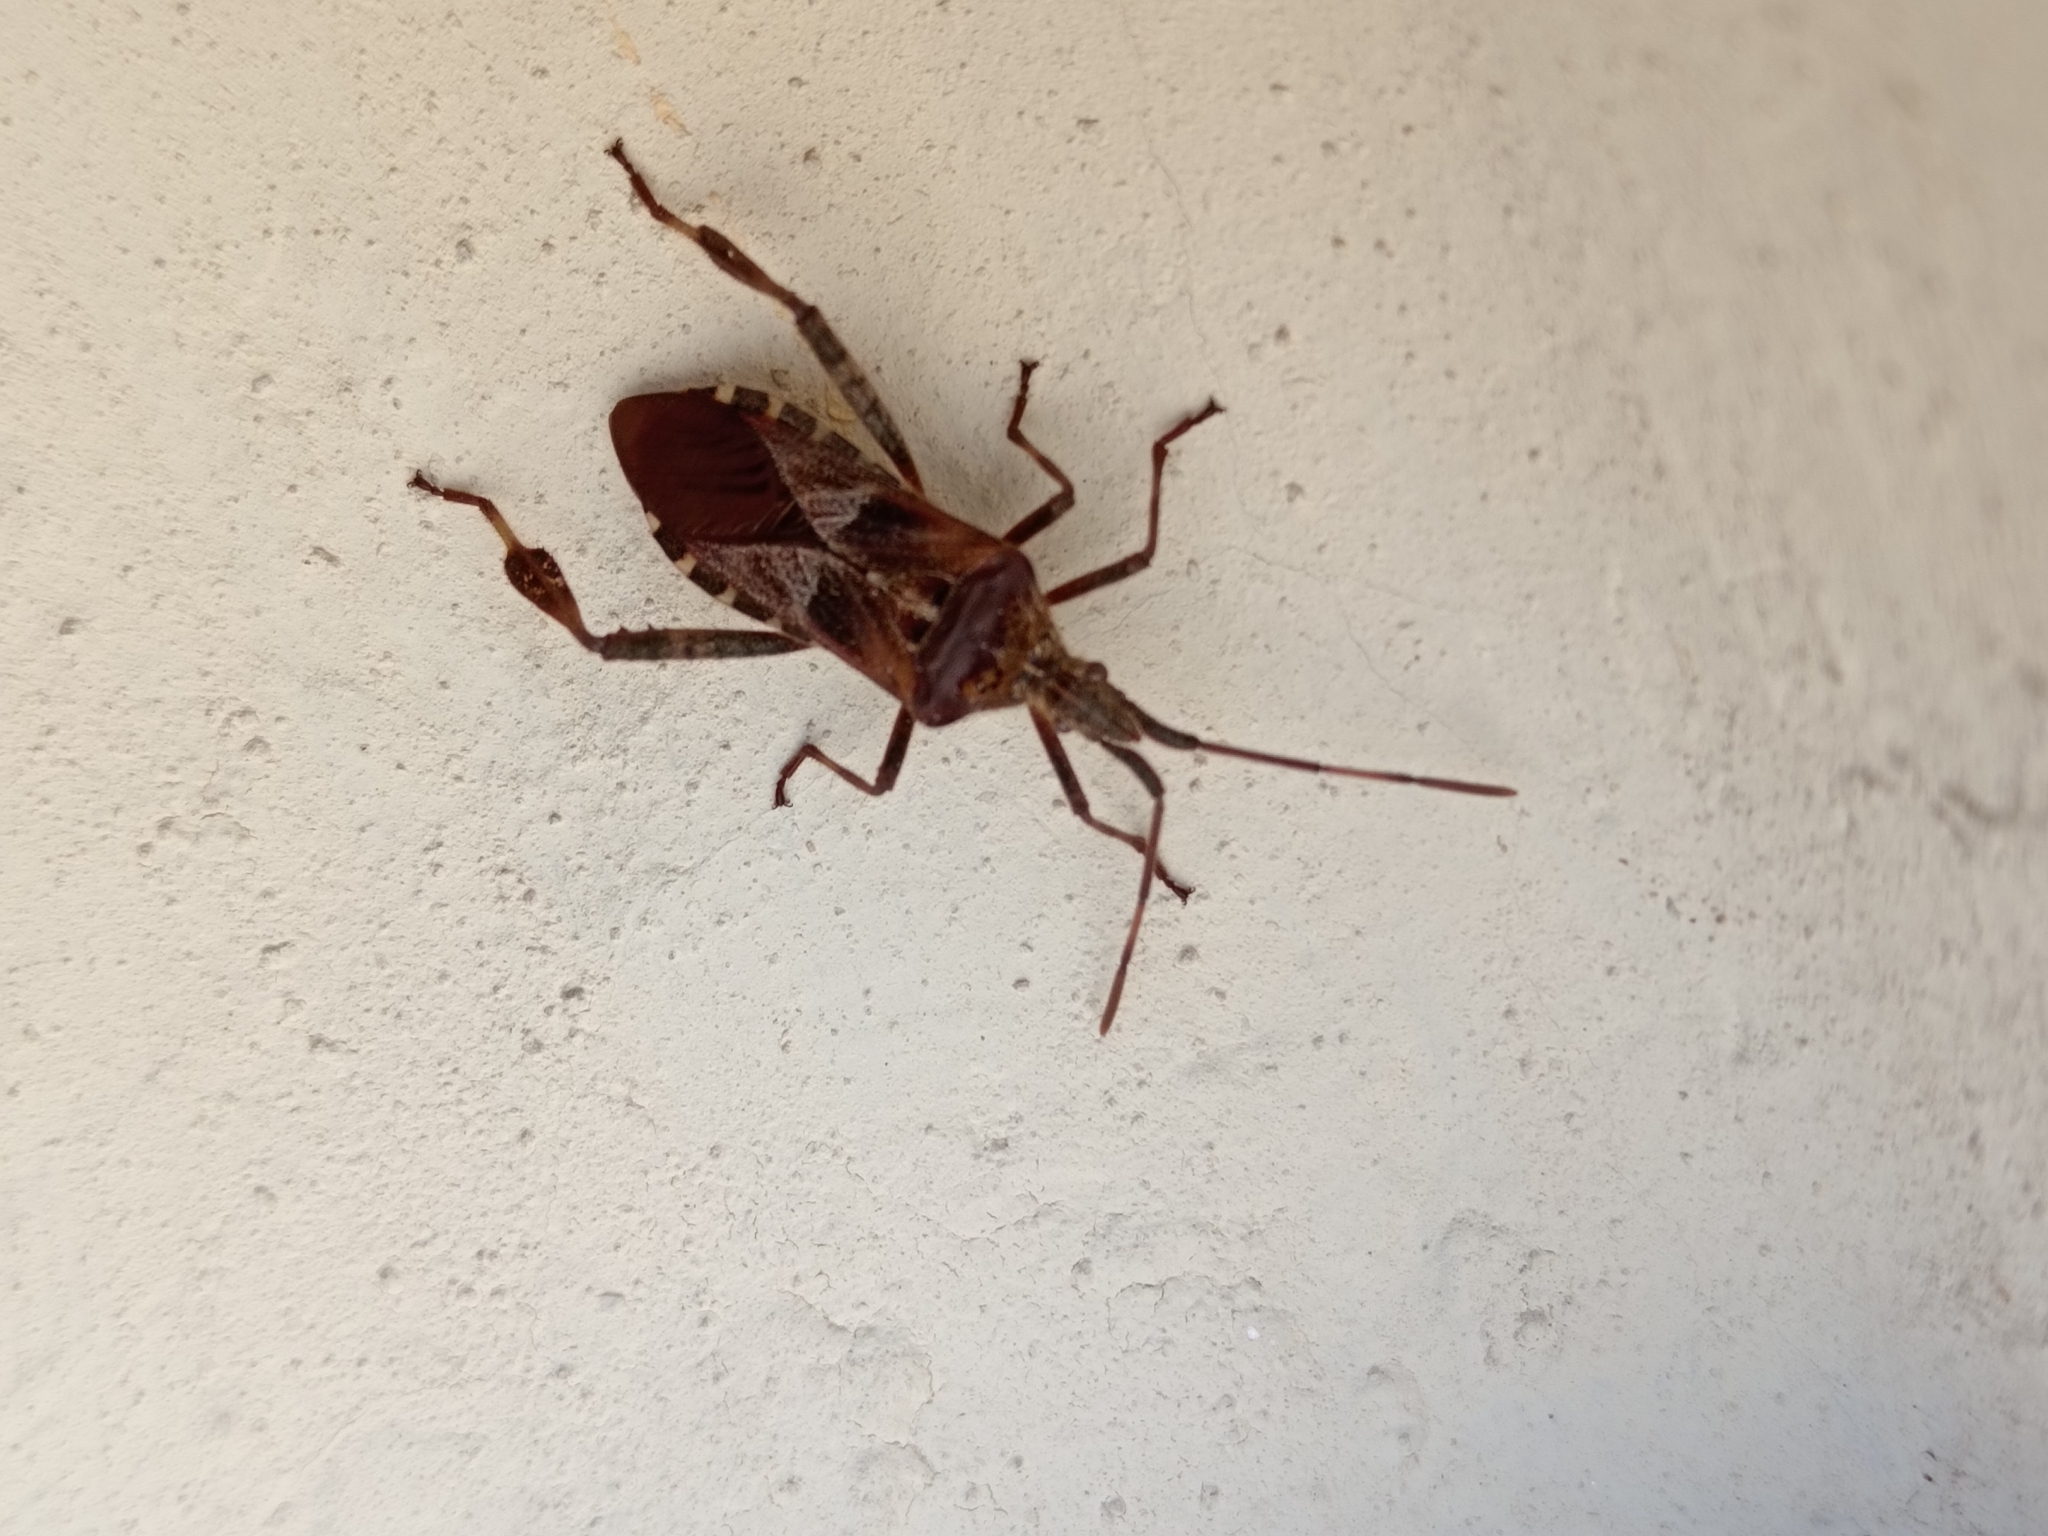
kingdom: Animalia
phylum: Arthropoda
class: Insecta
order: Hemiptera
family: Coreidae
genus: Leptoglossus
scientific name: Leptoglossus occidentalis
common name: Western conifer-seed bug
